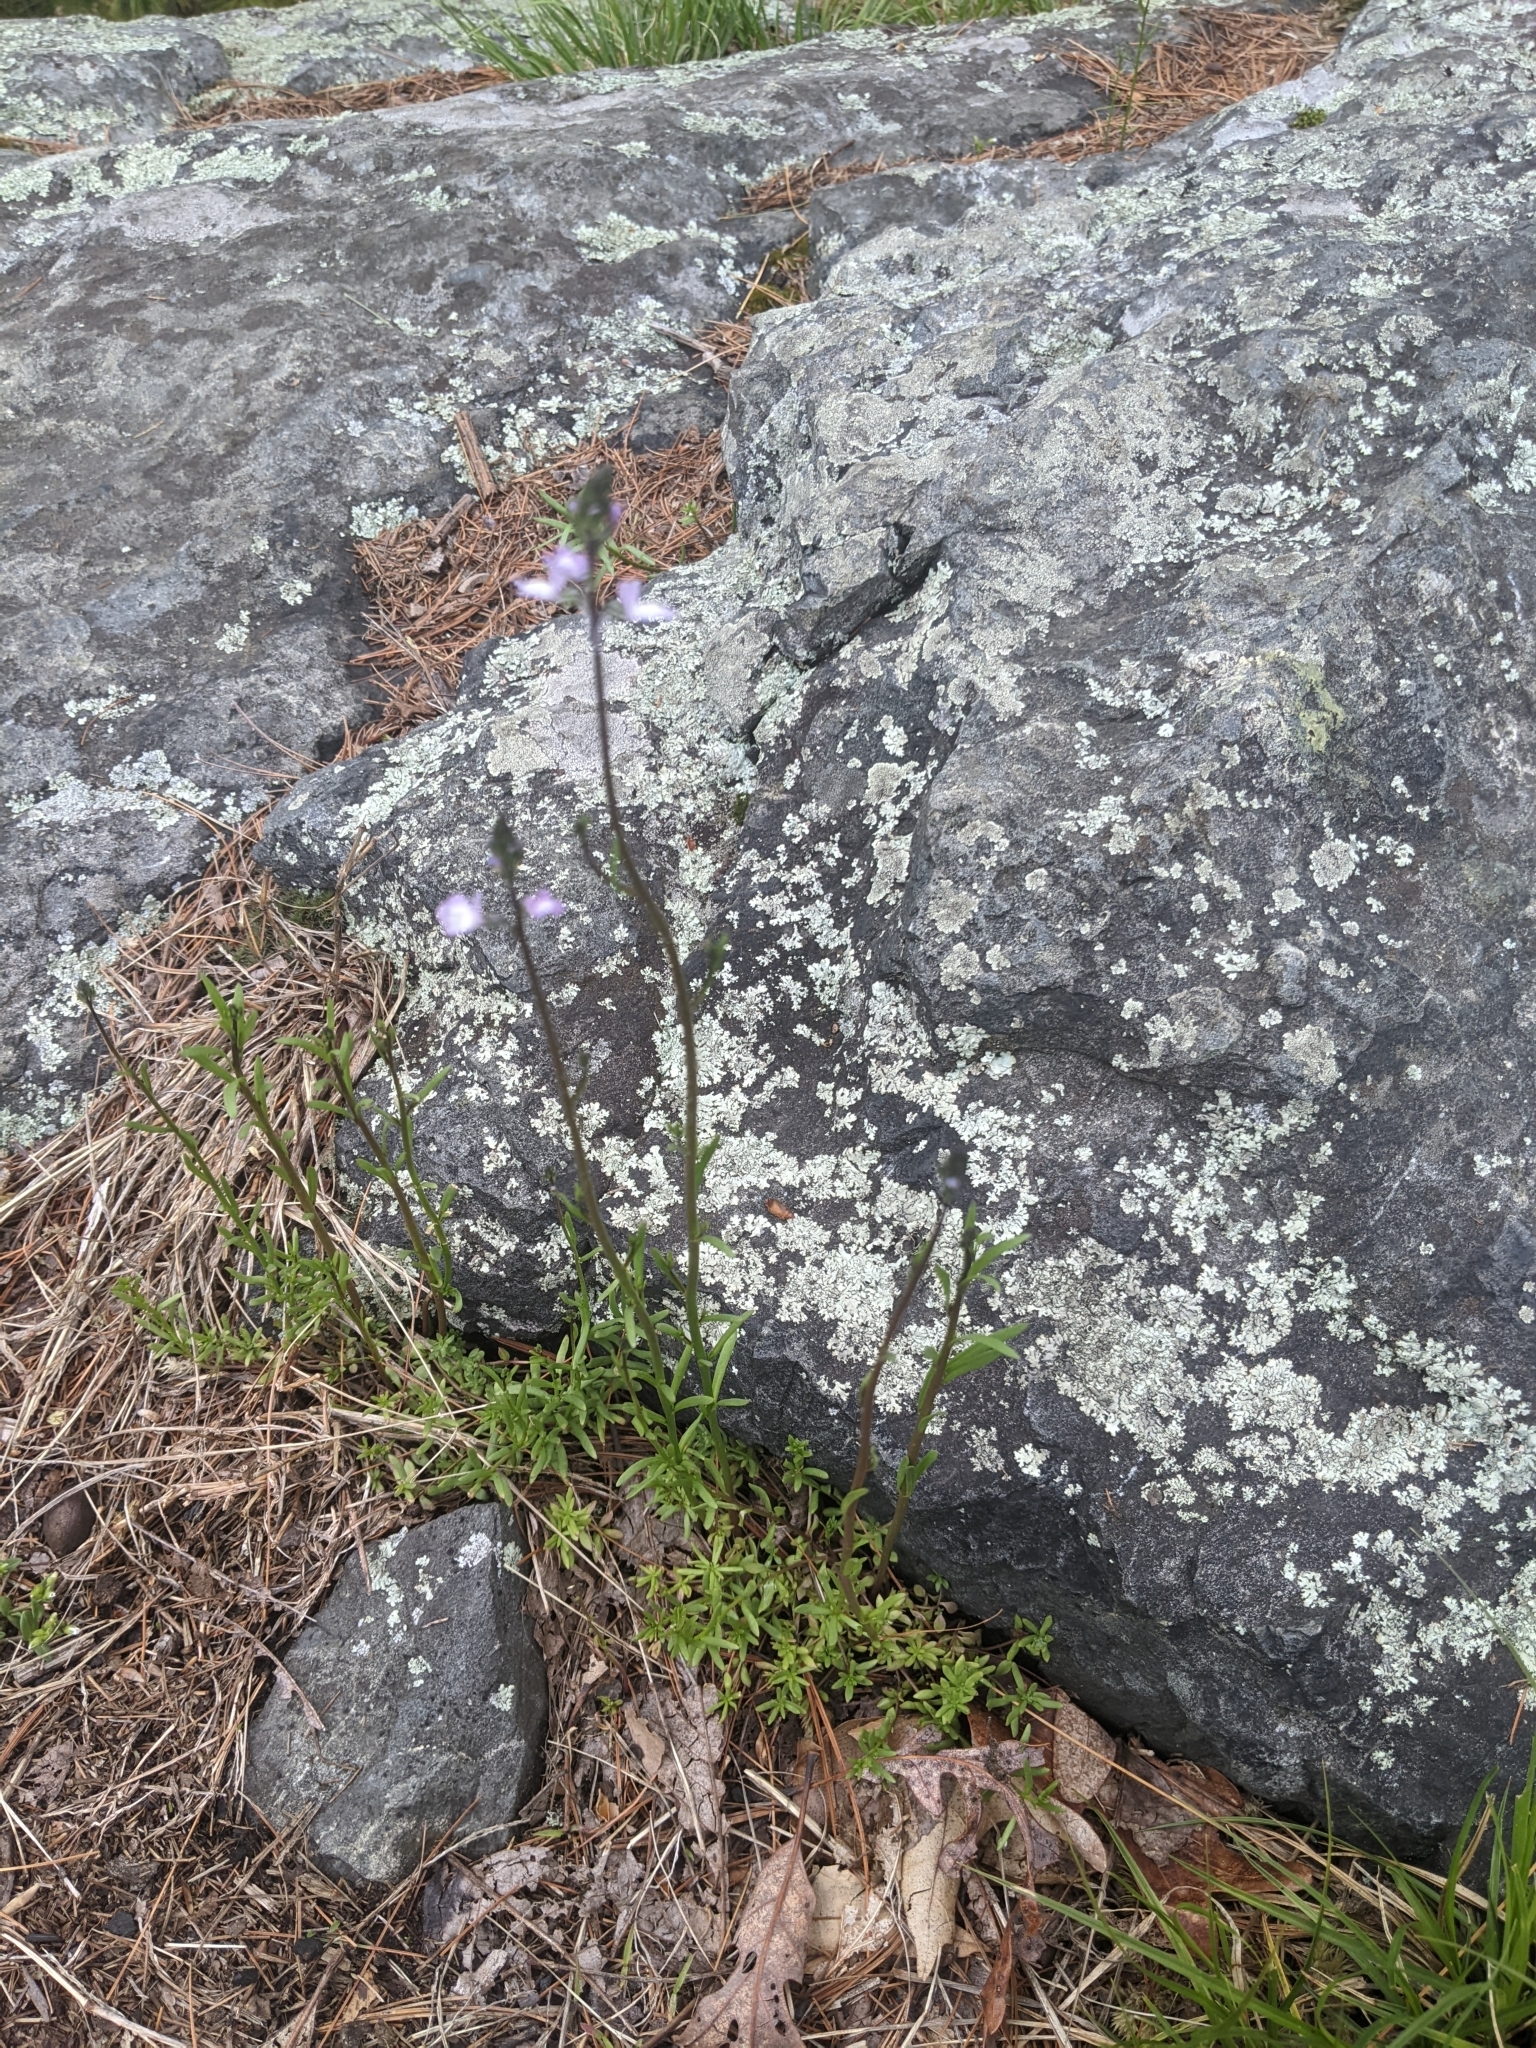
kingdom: Plantae
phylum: Tracheophyta
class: Magnoliopsida
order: Lamiales
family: Plantaginaceae
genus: Nuttallanthus
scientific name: Nuttallanthus canadensis
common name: Blue toadflax
